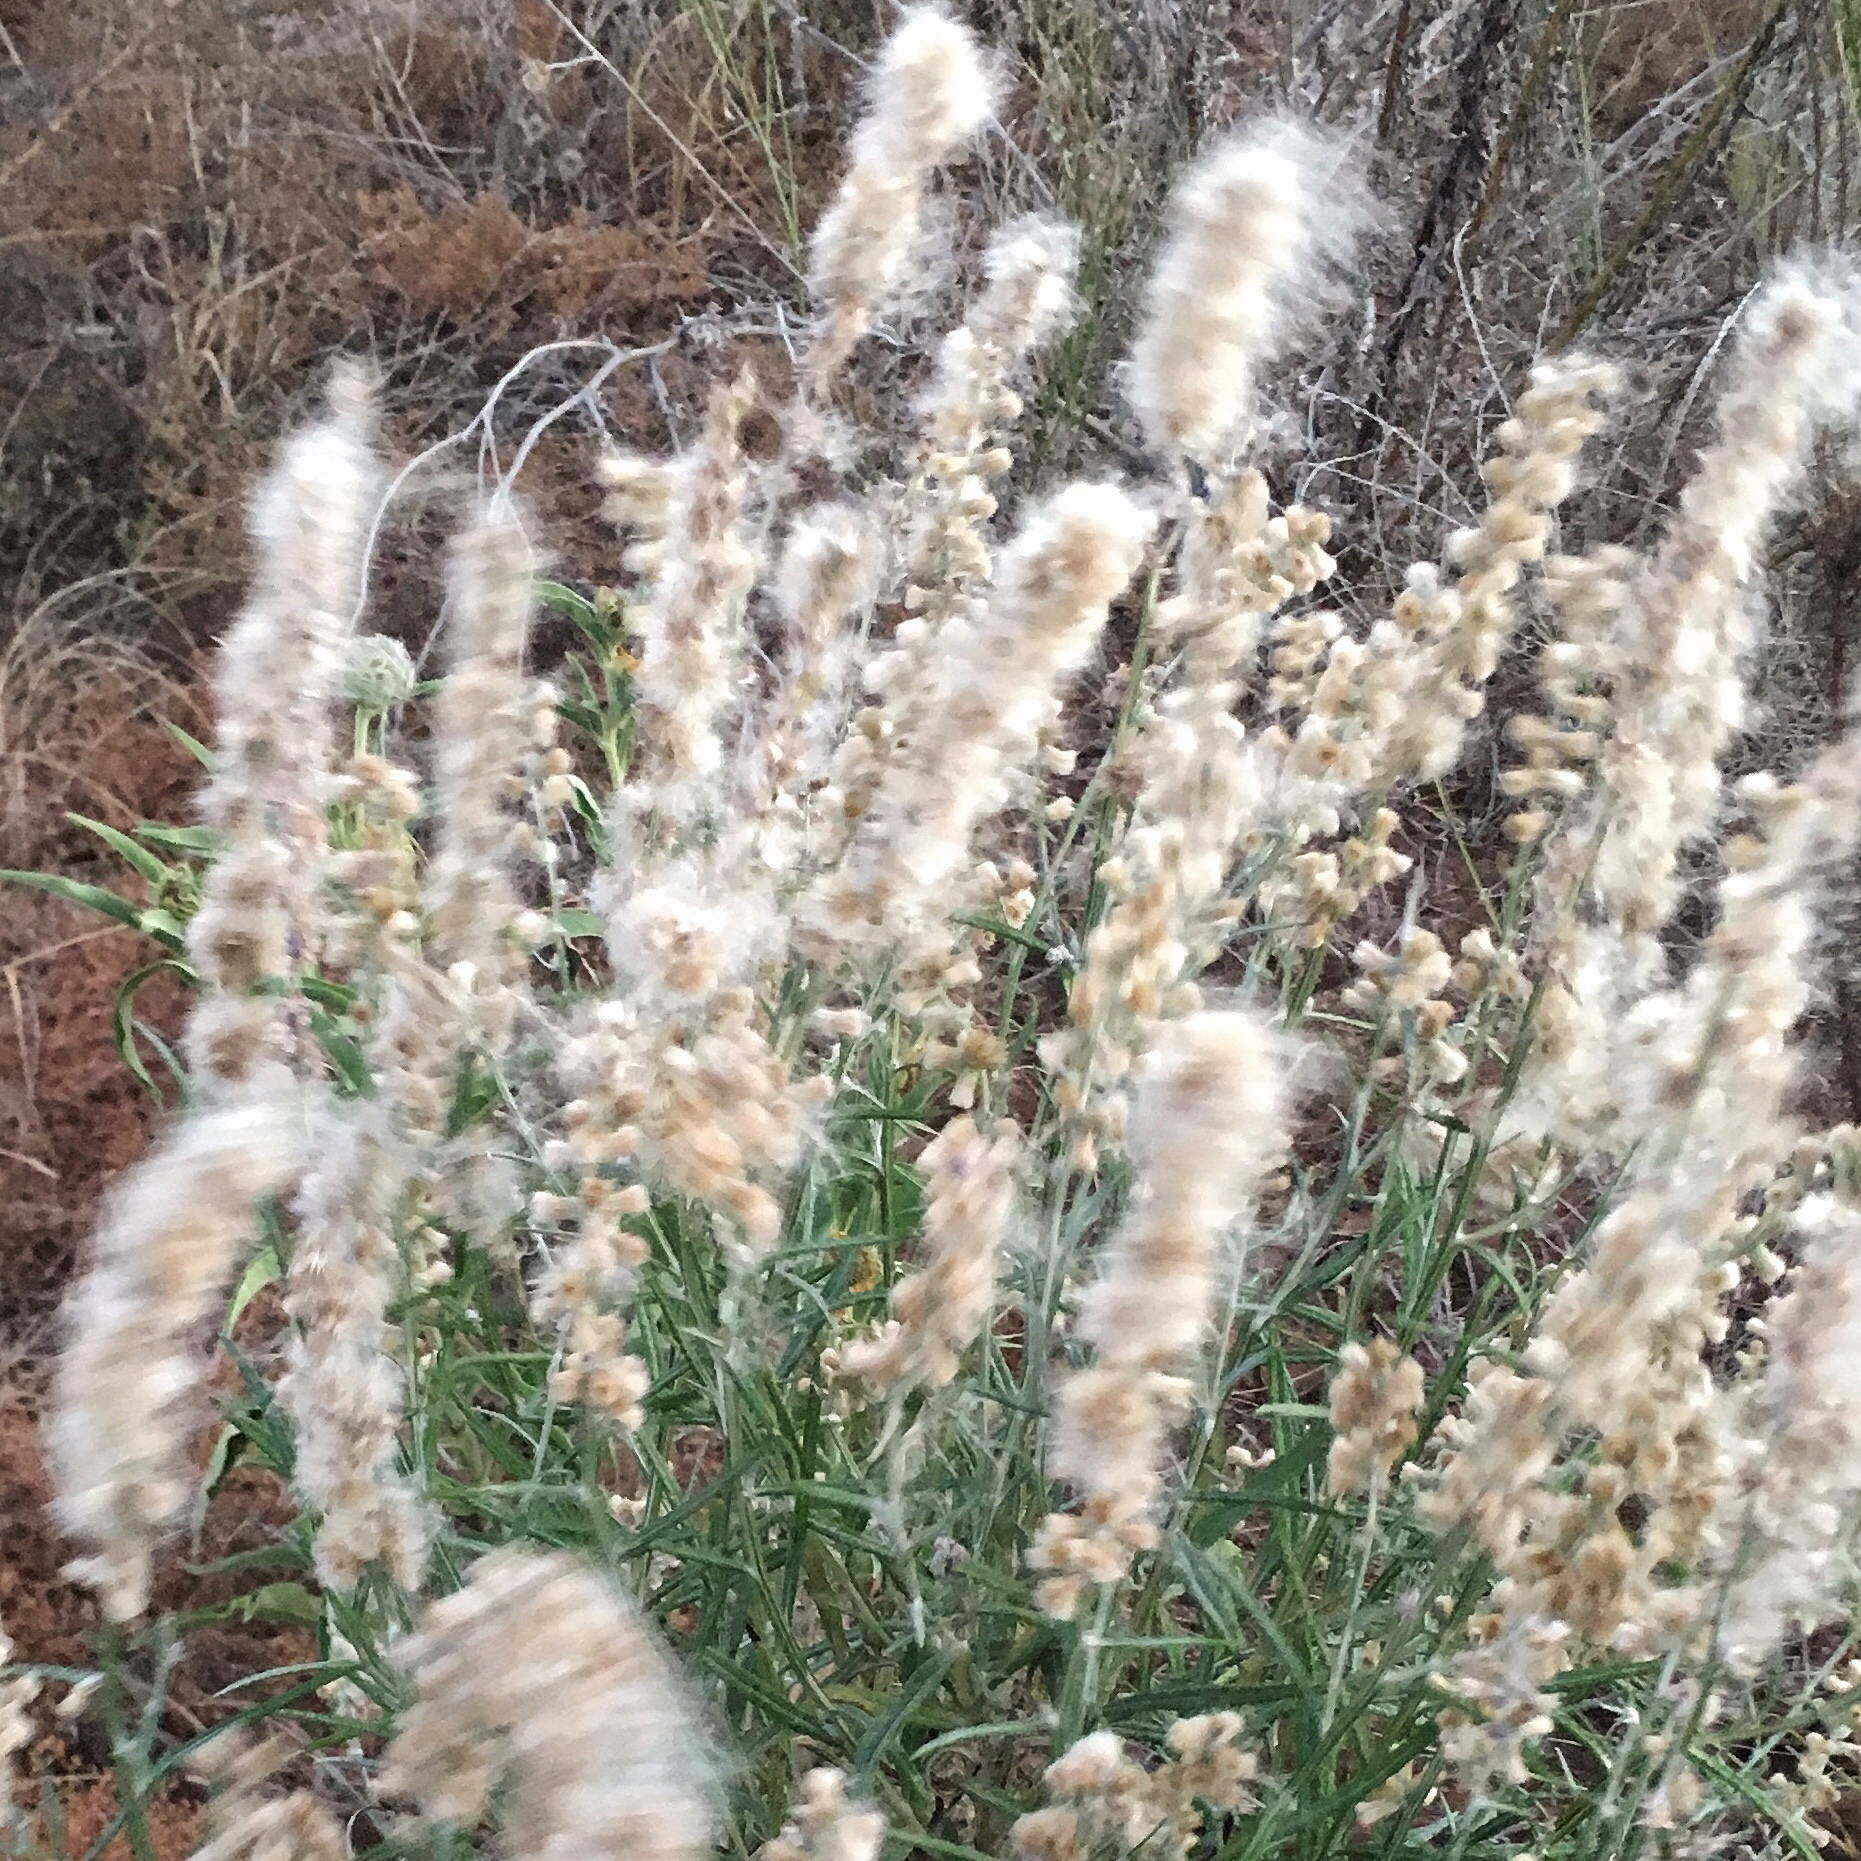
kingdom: Plantae
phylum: Tracheophyta
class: Magnoliopsida
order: Caryophyllales
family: Amaranthaceae
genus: Krascheninnikovia
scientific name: Krascheninnikovia lanata
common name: Winterfat
